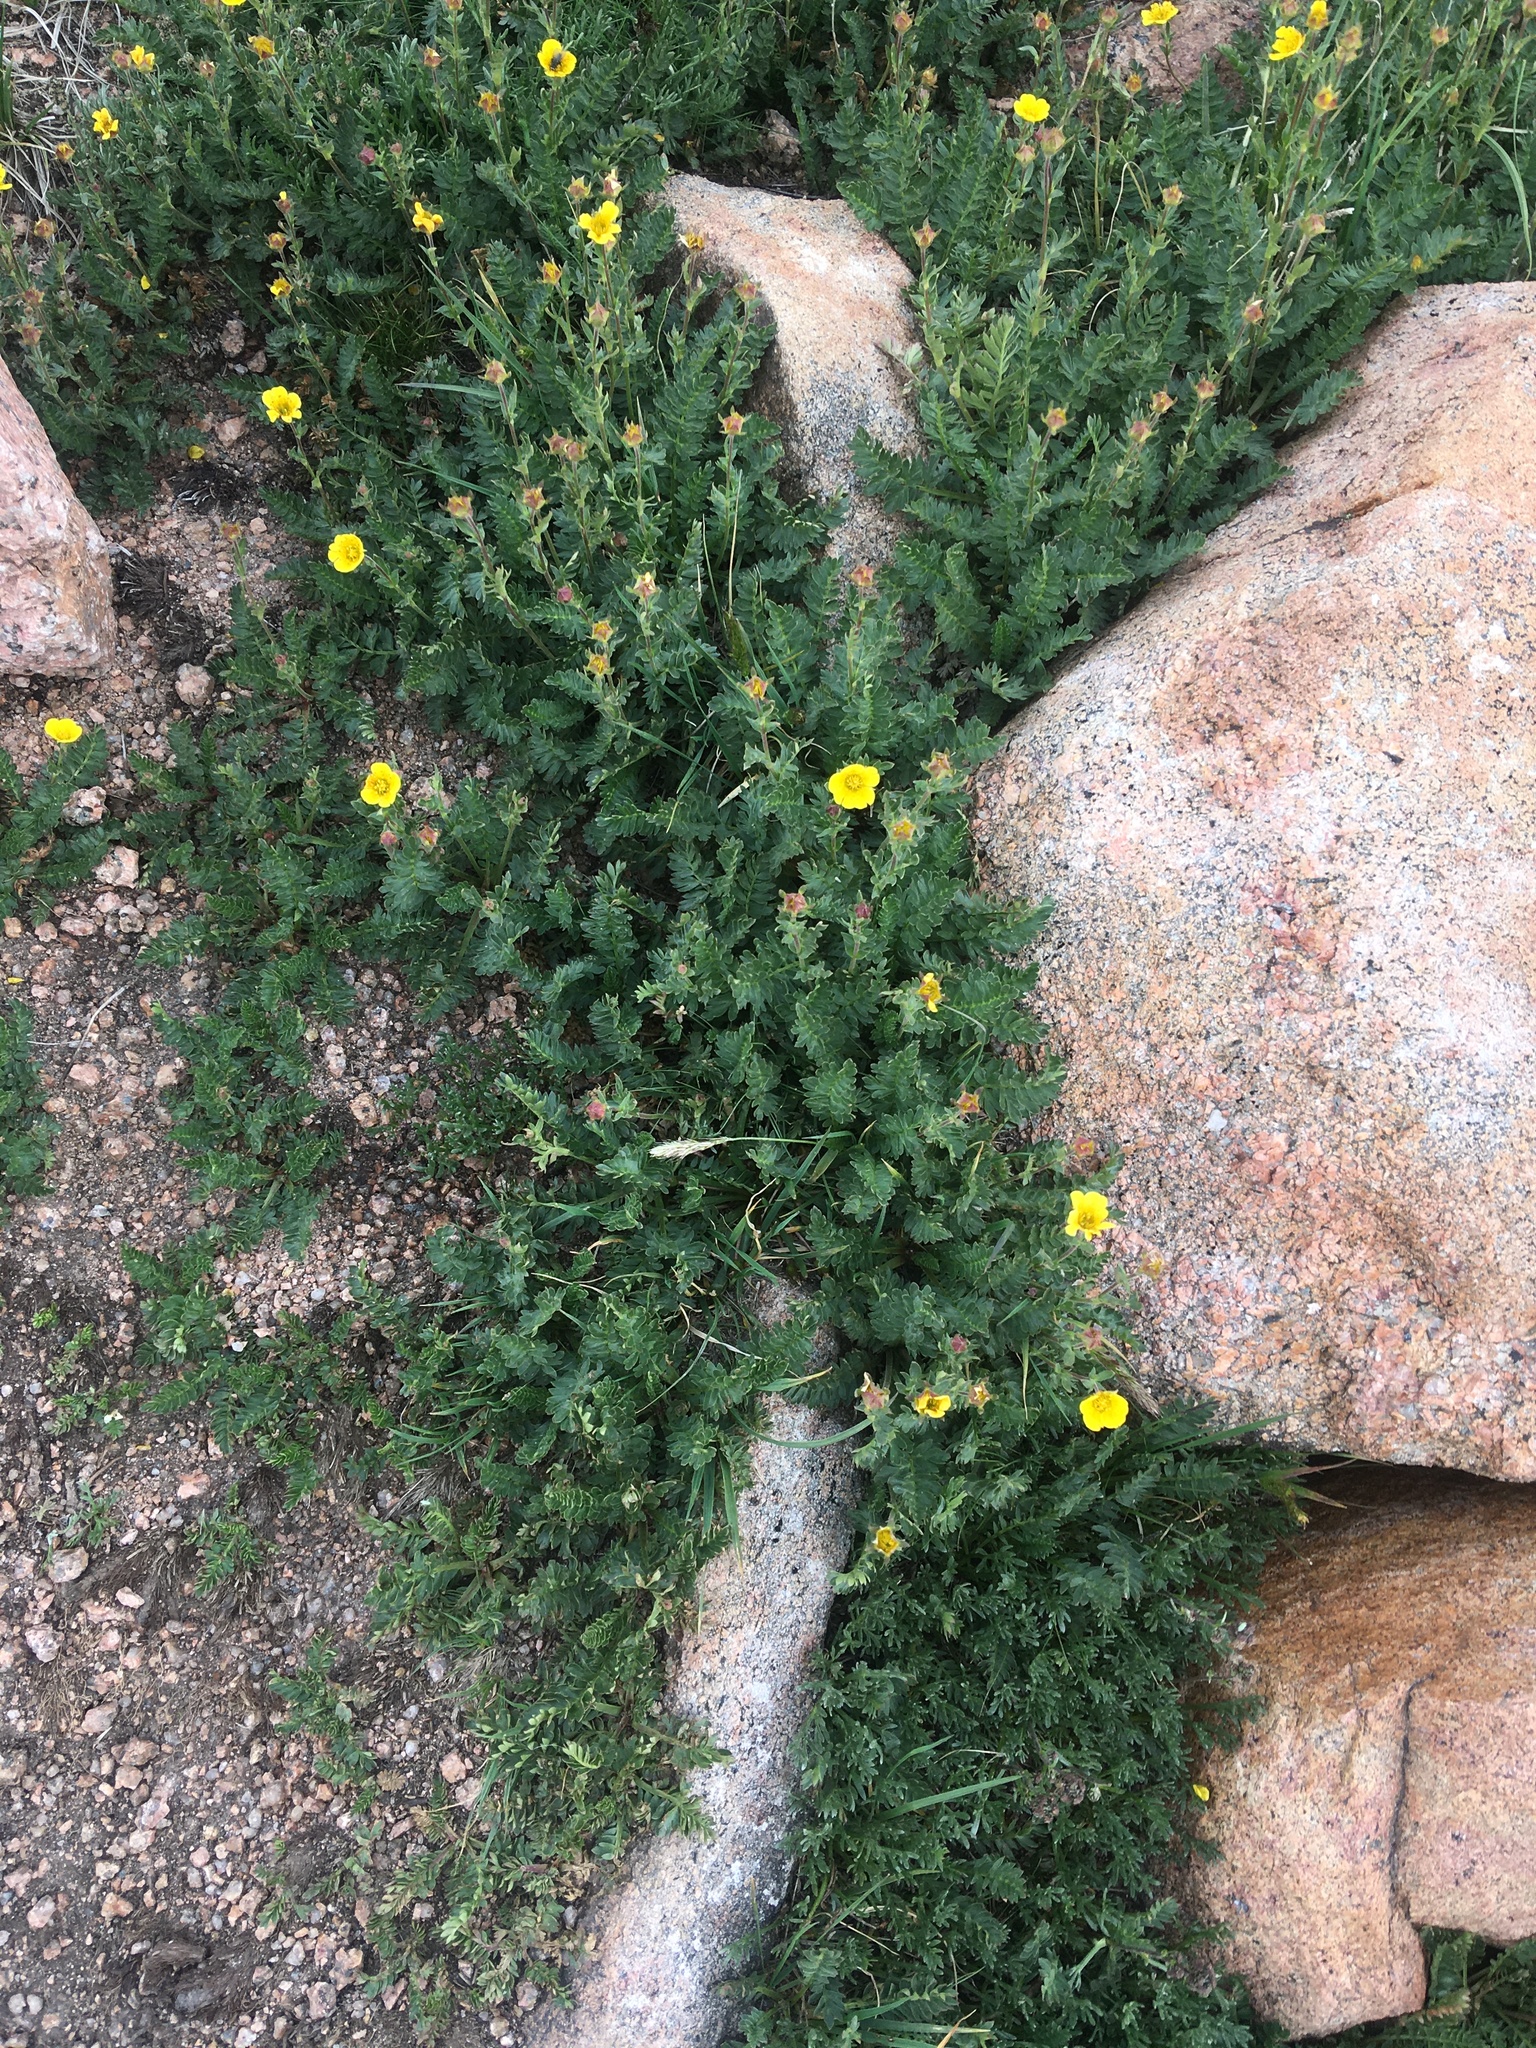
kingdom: Plantae
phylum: Tracheophyta
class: Magnoliopsida
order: Rosales
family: Rosaceae
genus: Geum
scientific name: Geum rossii
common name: Alpine avens
